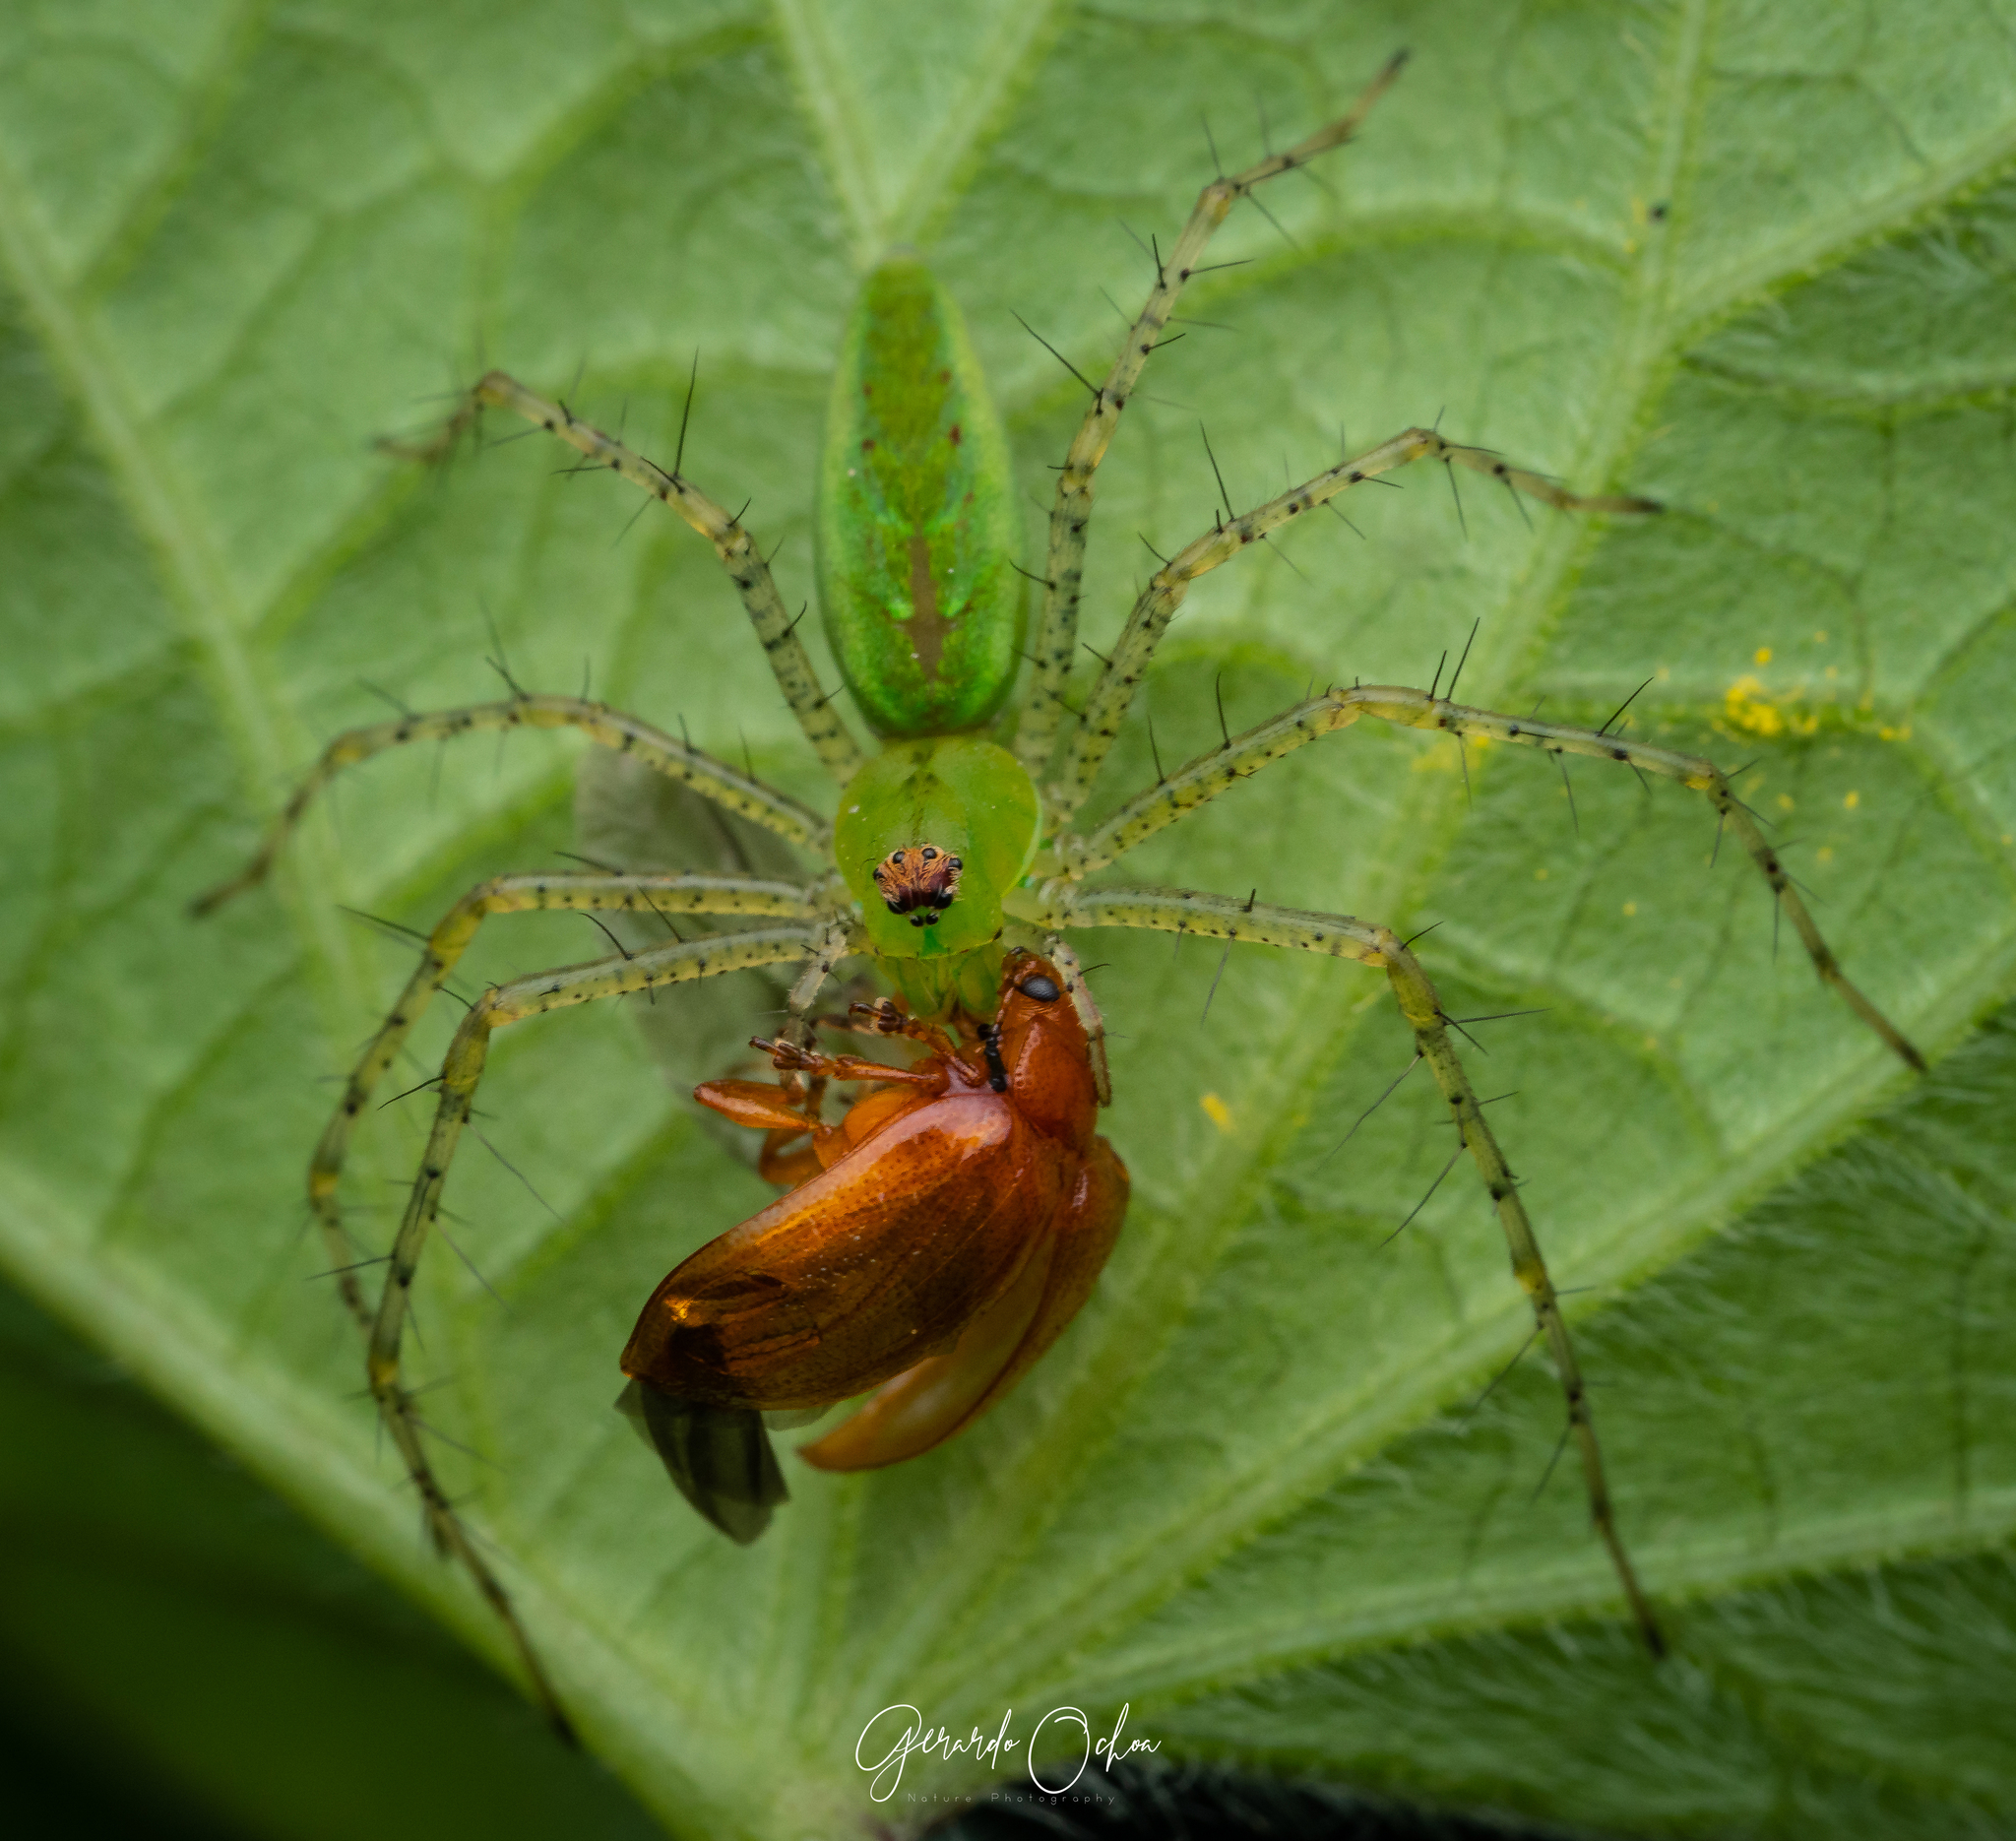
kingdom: Animalia
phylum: Arthropoda
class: Arachnida
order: Araneae
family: Oxyopidae
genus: Peucetia
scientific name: Peucetia viridans
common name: Lynx spiders
